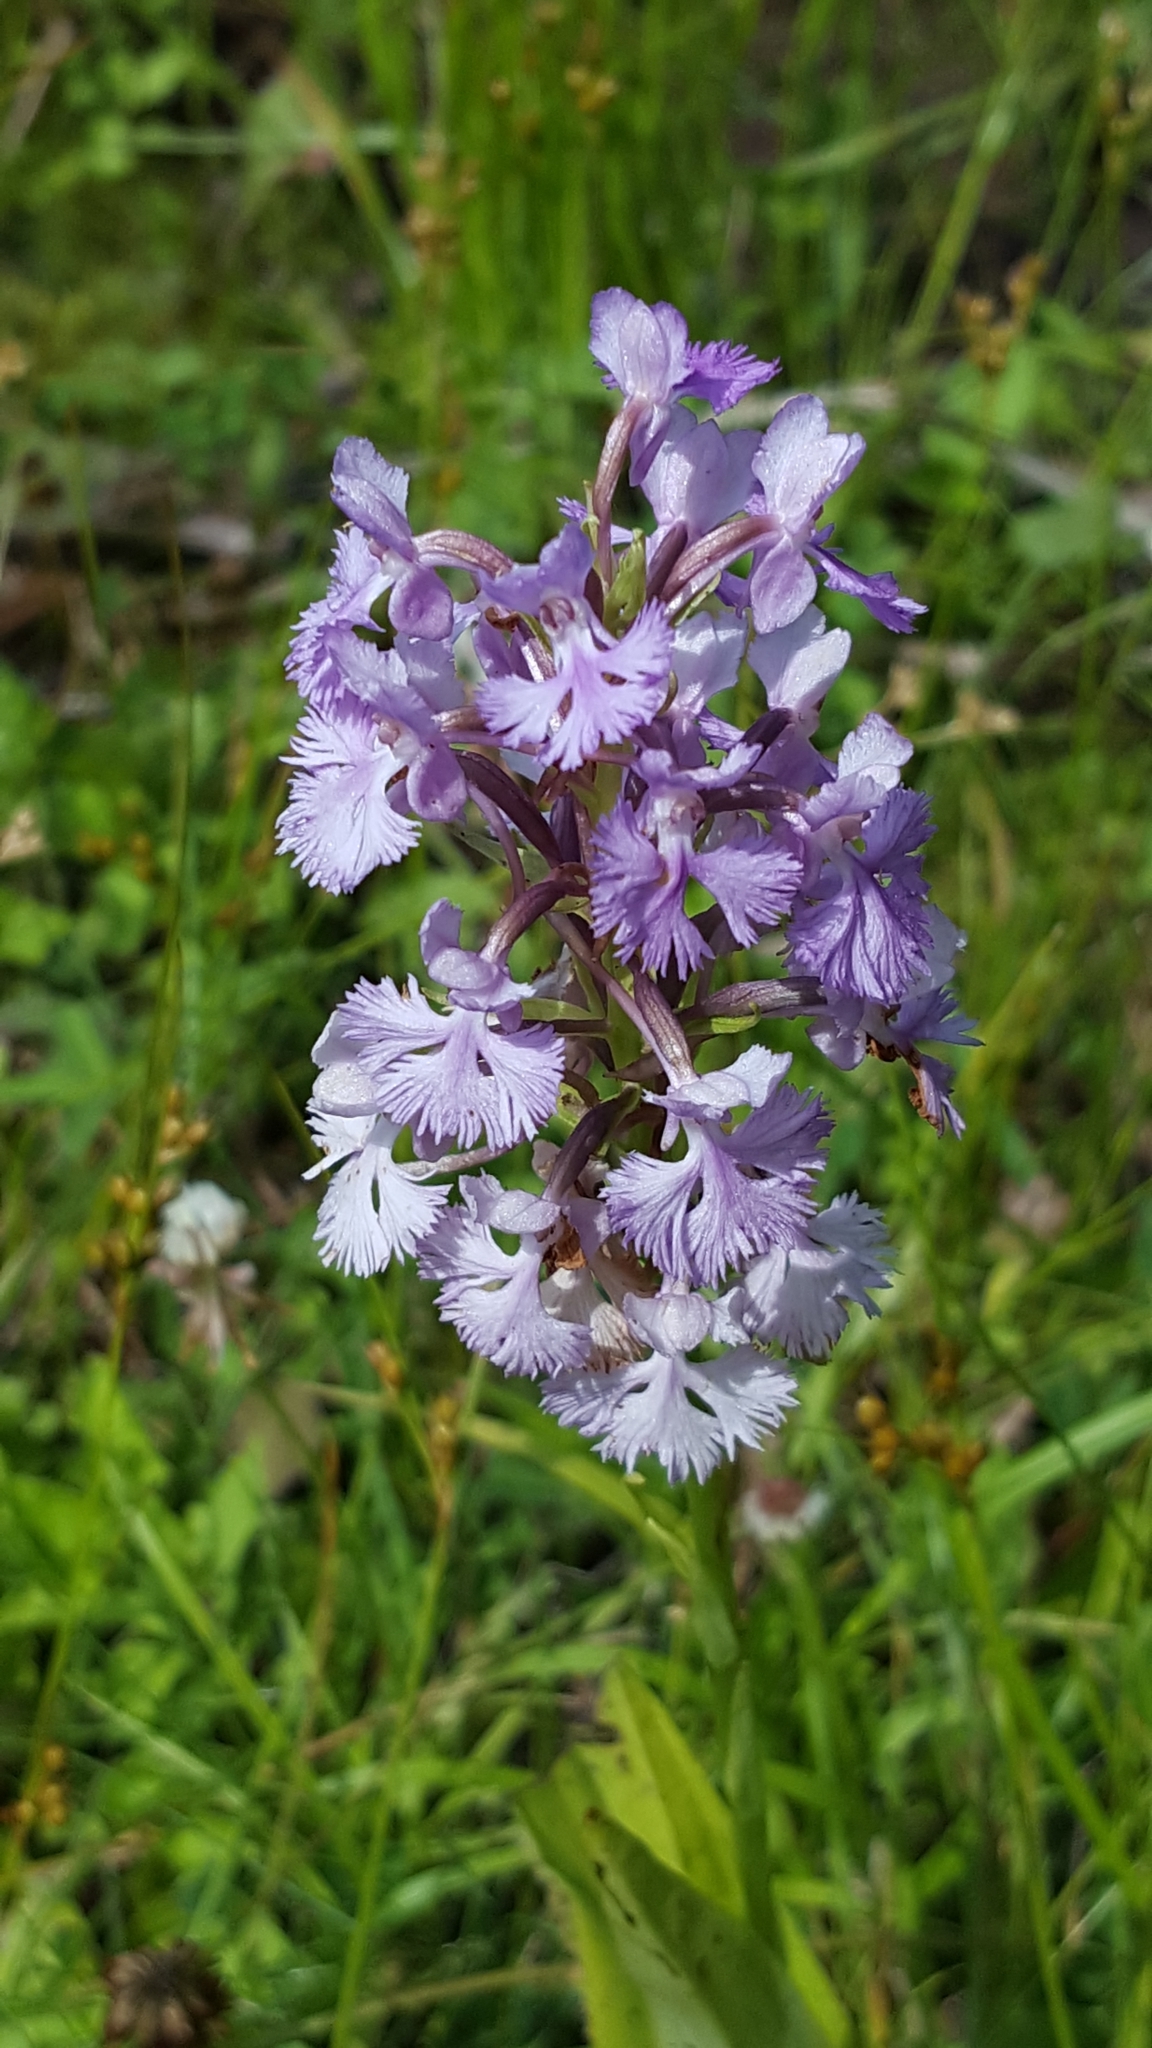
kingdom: Plantae
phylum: Tracheophyta
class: Liliopsida
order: Asparagales
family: Orchidaceae
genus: Platanthera
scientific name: Platanthera psycodes
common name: Lesser purple fringed orchid
